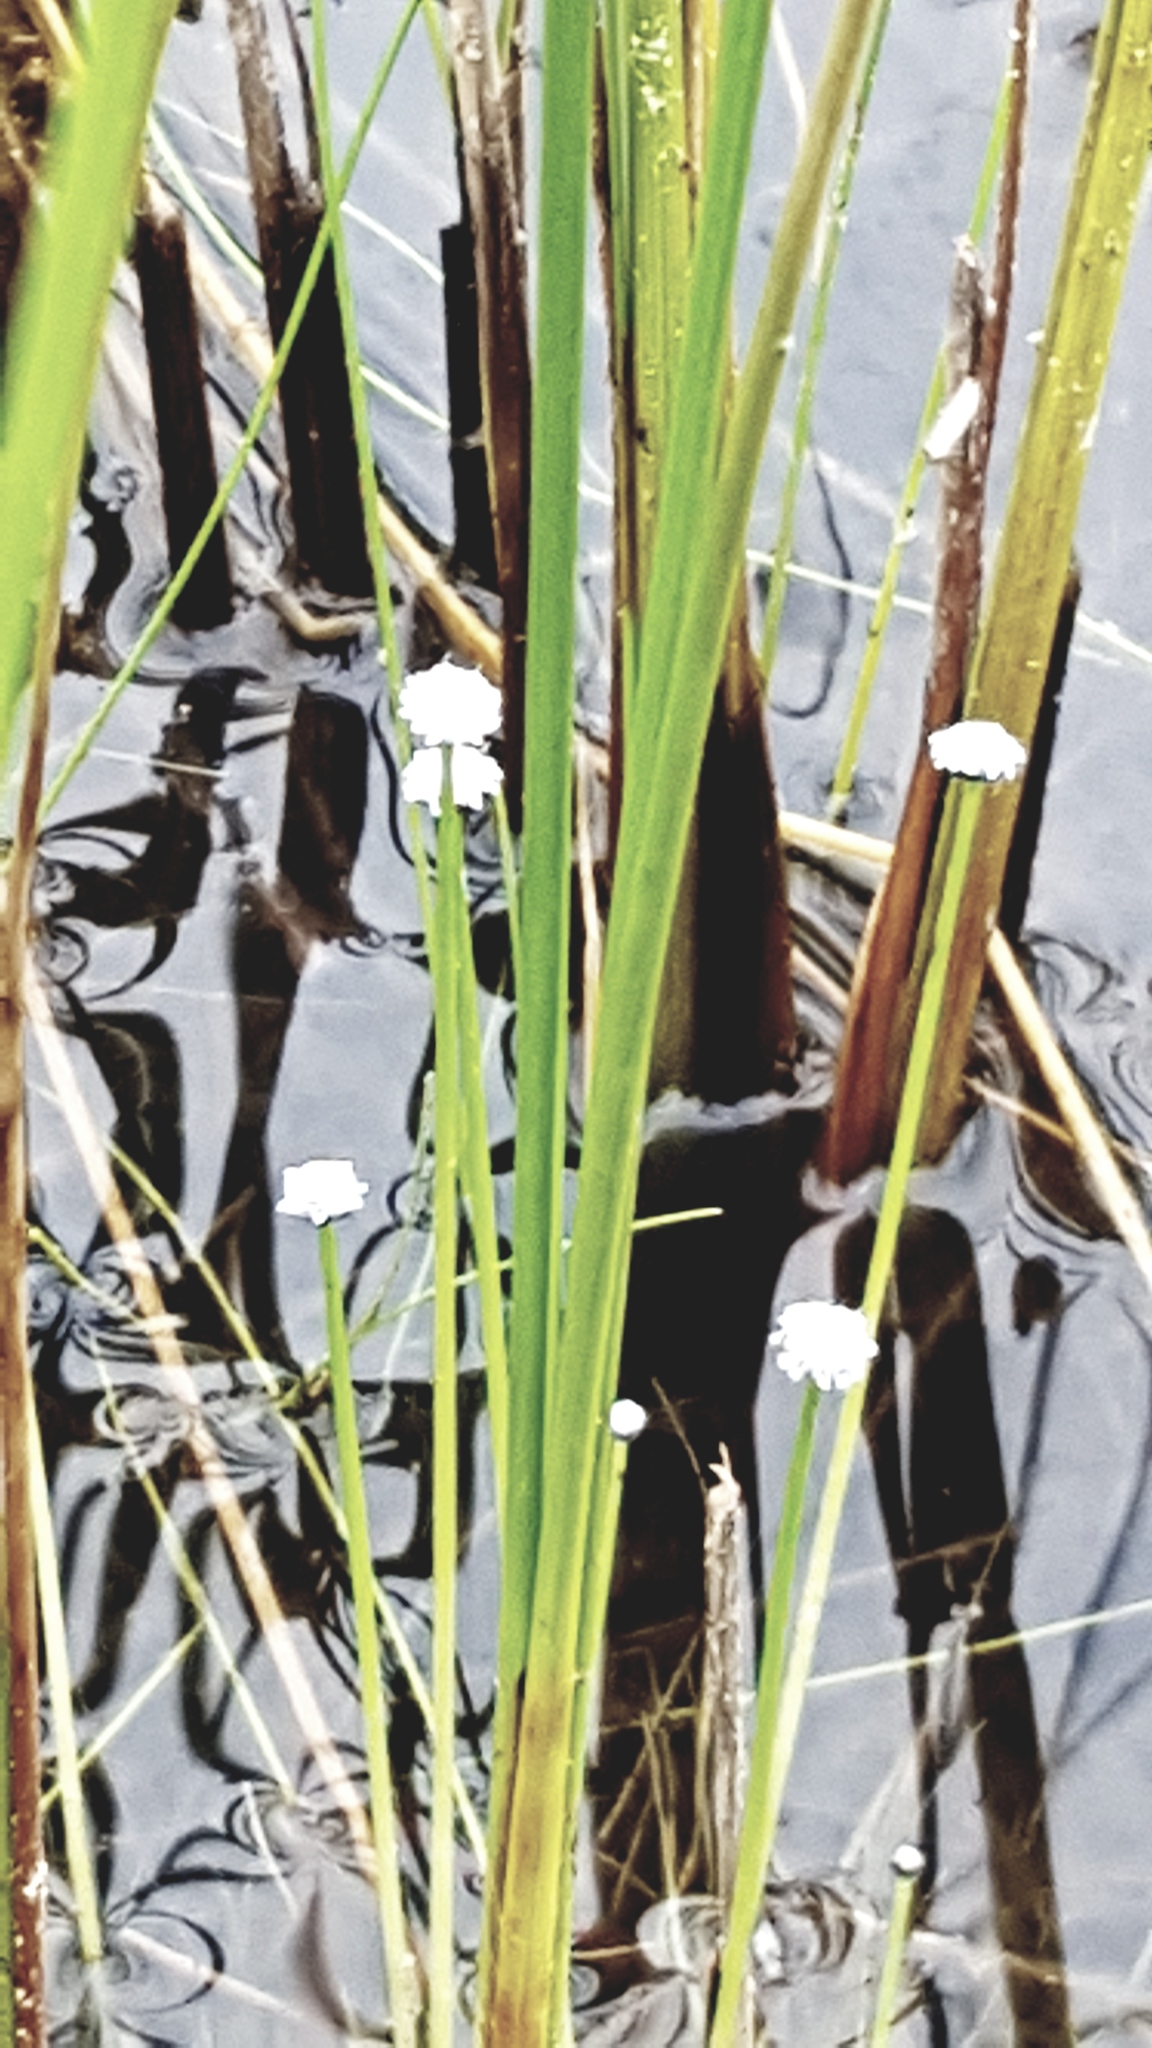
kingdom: Plantae
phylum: Tracheophyta
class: Liliopsida
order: Poales
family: Eriocaulaceae
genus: Eriocaulon
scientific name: Eriocaulon aquaticum
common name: Pipewort
